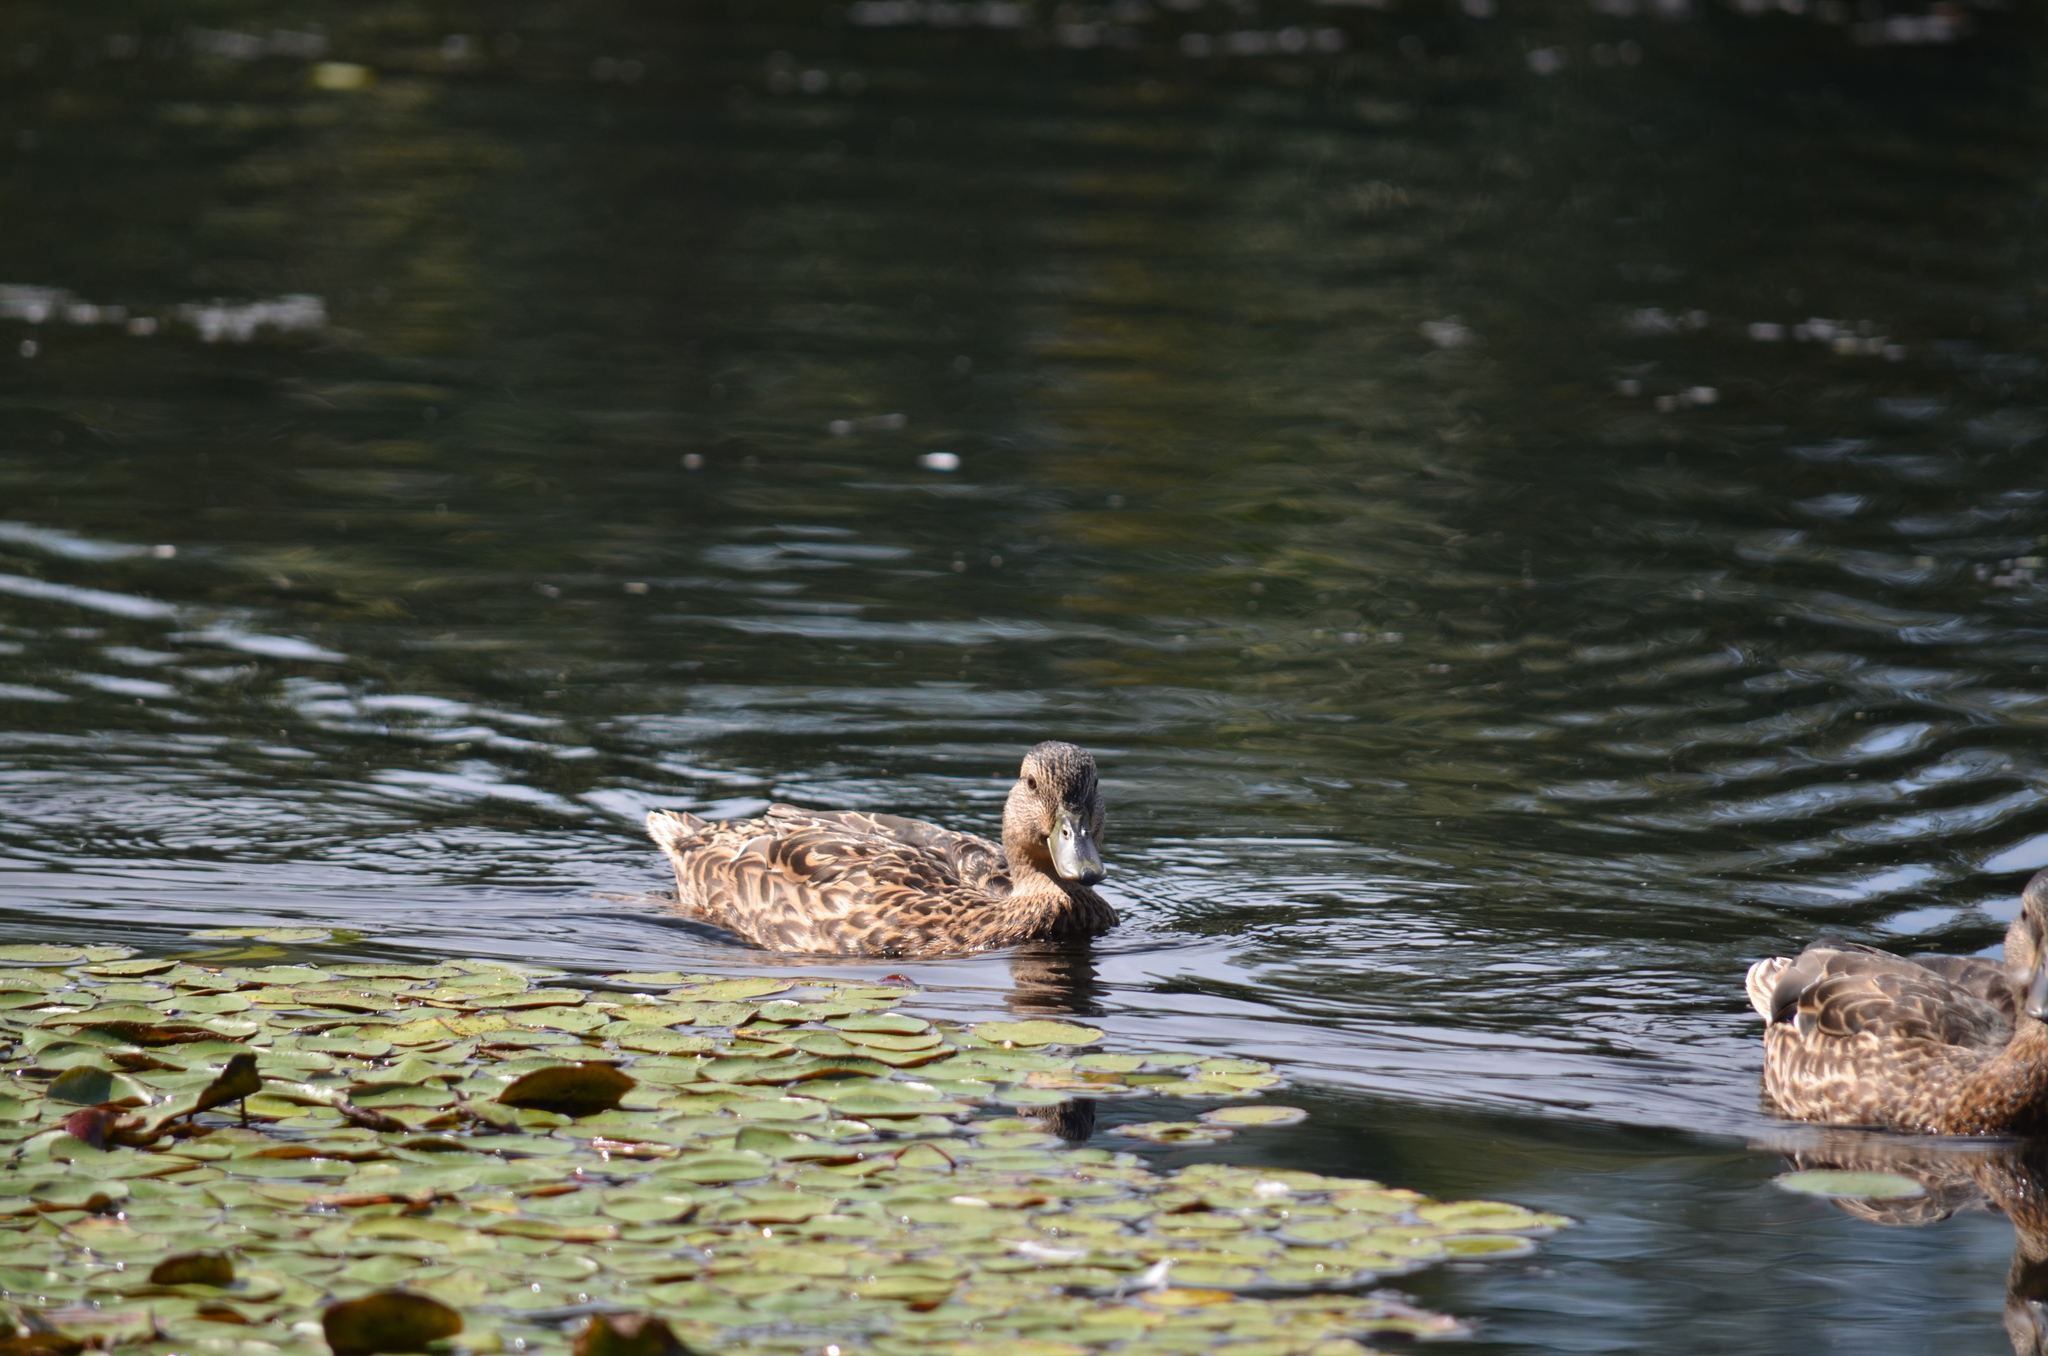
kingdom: Animalia
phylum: Chordata
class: Aves
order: Anseriformes
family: Anatidae
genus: Anas
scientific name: Anas platyrhynchos
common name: Mallard
